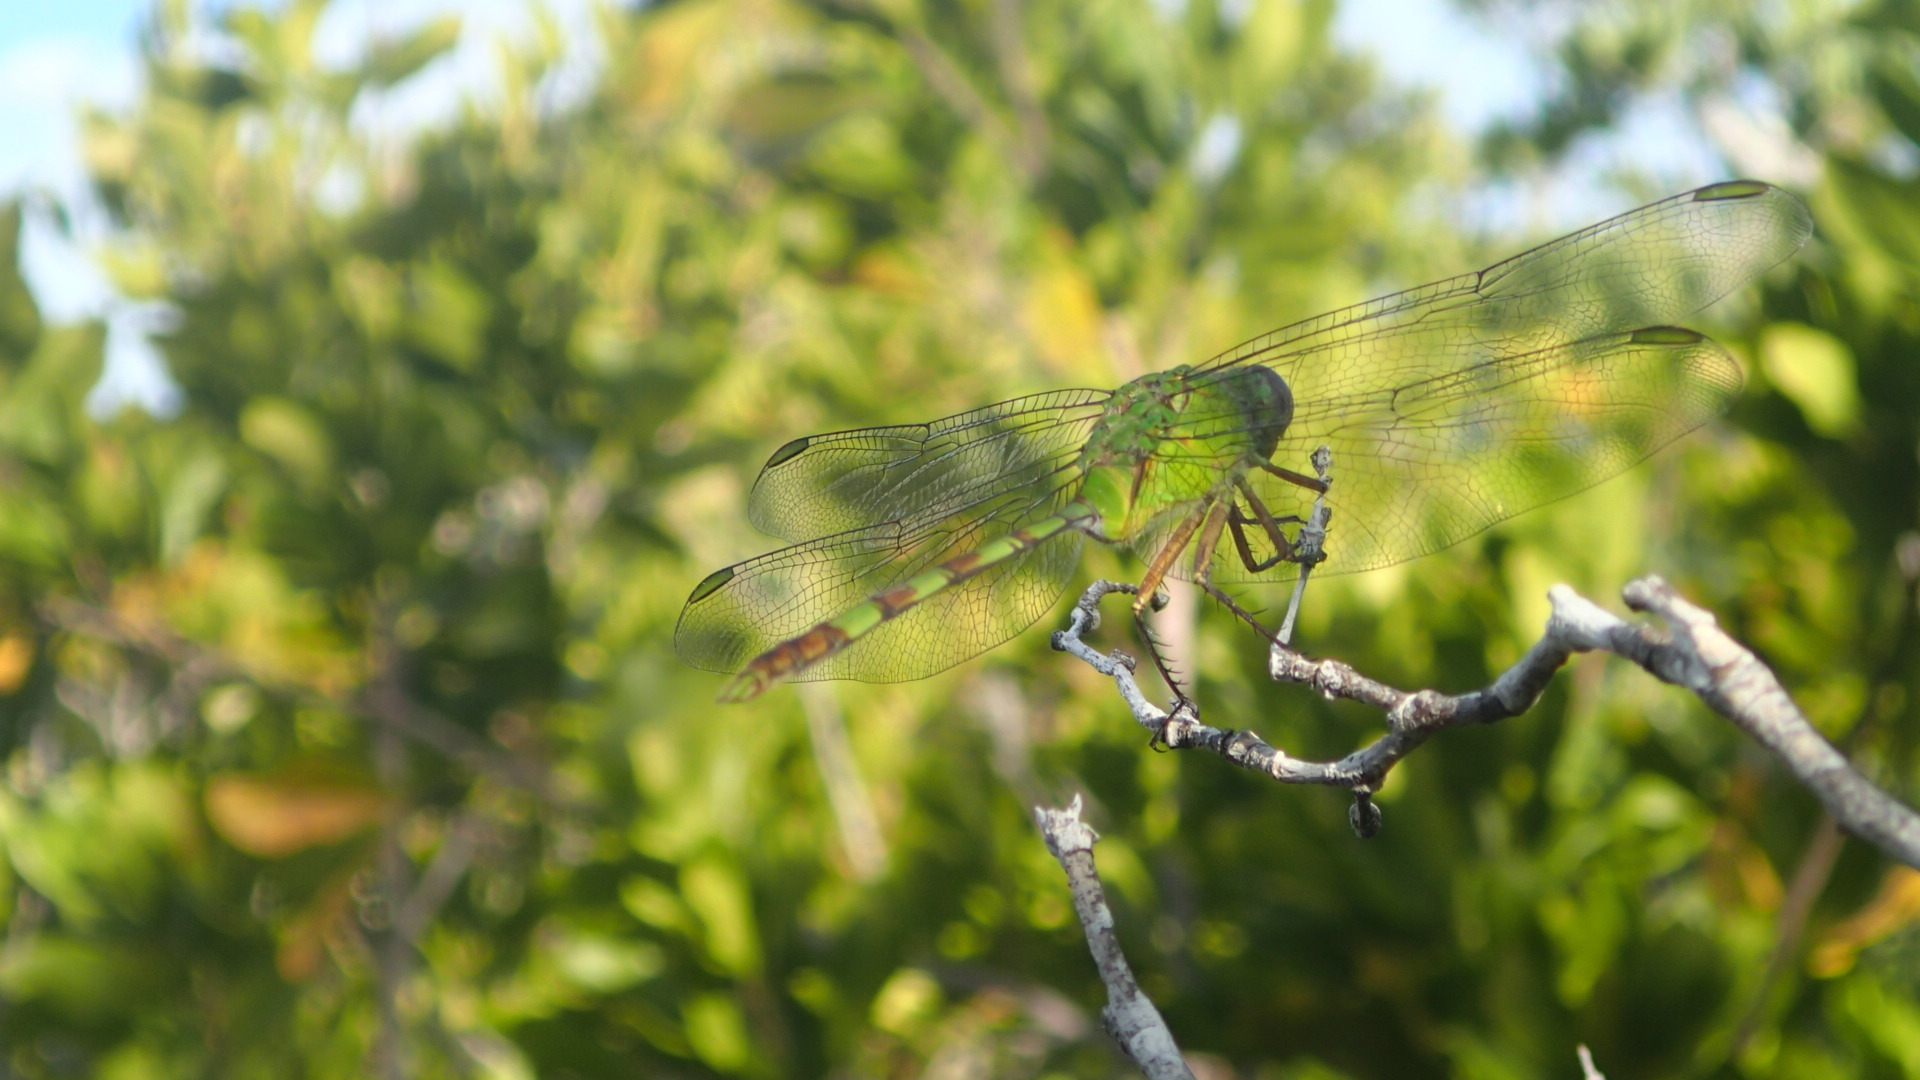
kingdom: Animalia
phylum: Arthropoda
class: Insecta
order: Odonata
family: Libellulidae
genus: Erythemis
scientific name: Erythemis vesiculosa
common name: Great pondhawk
